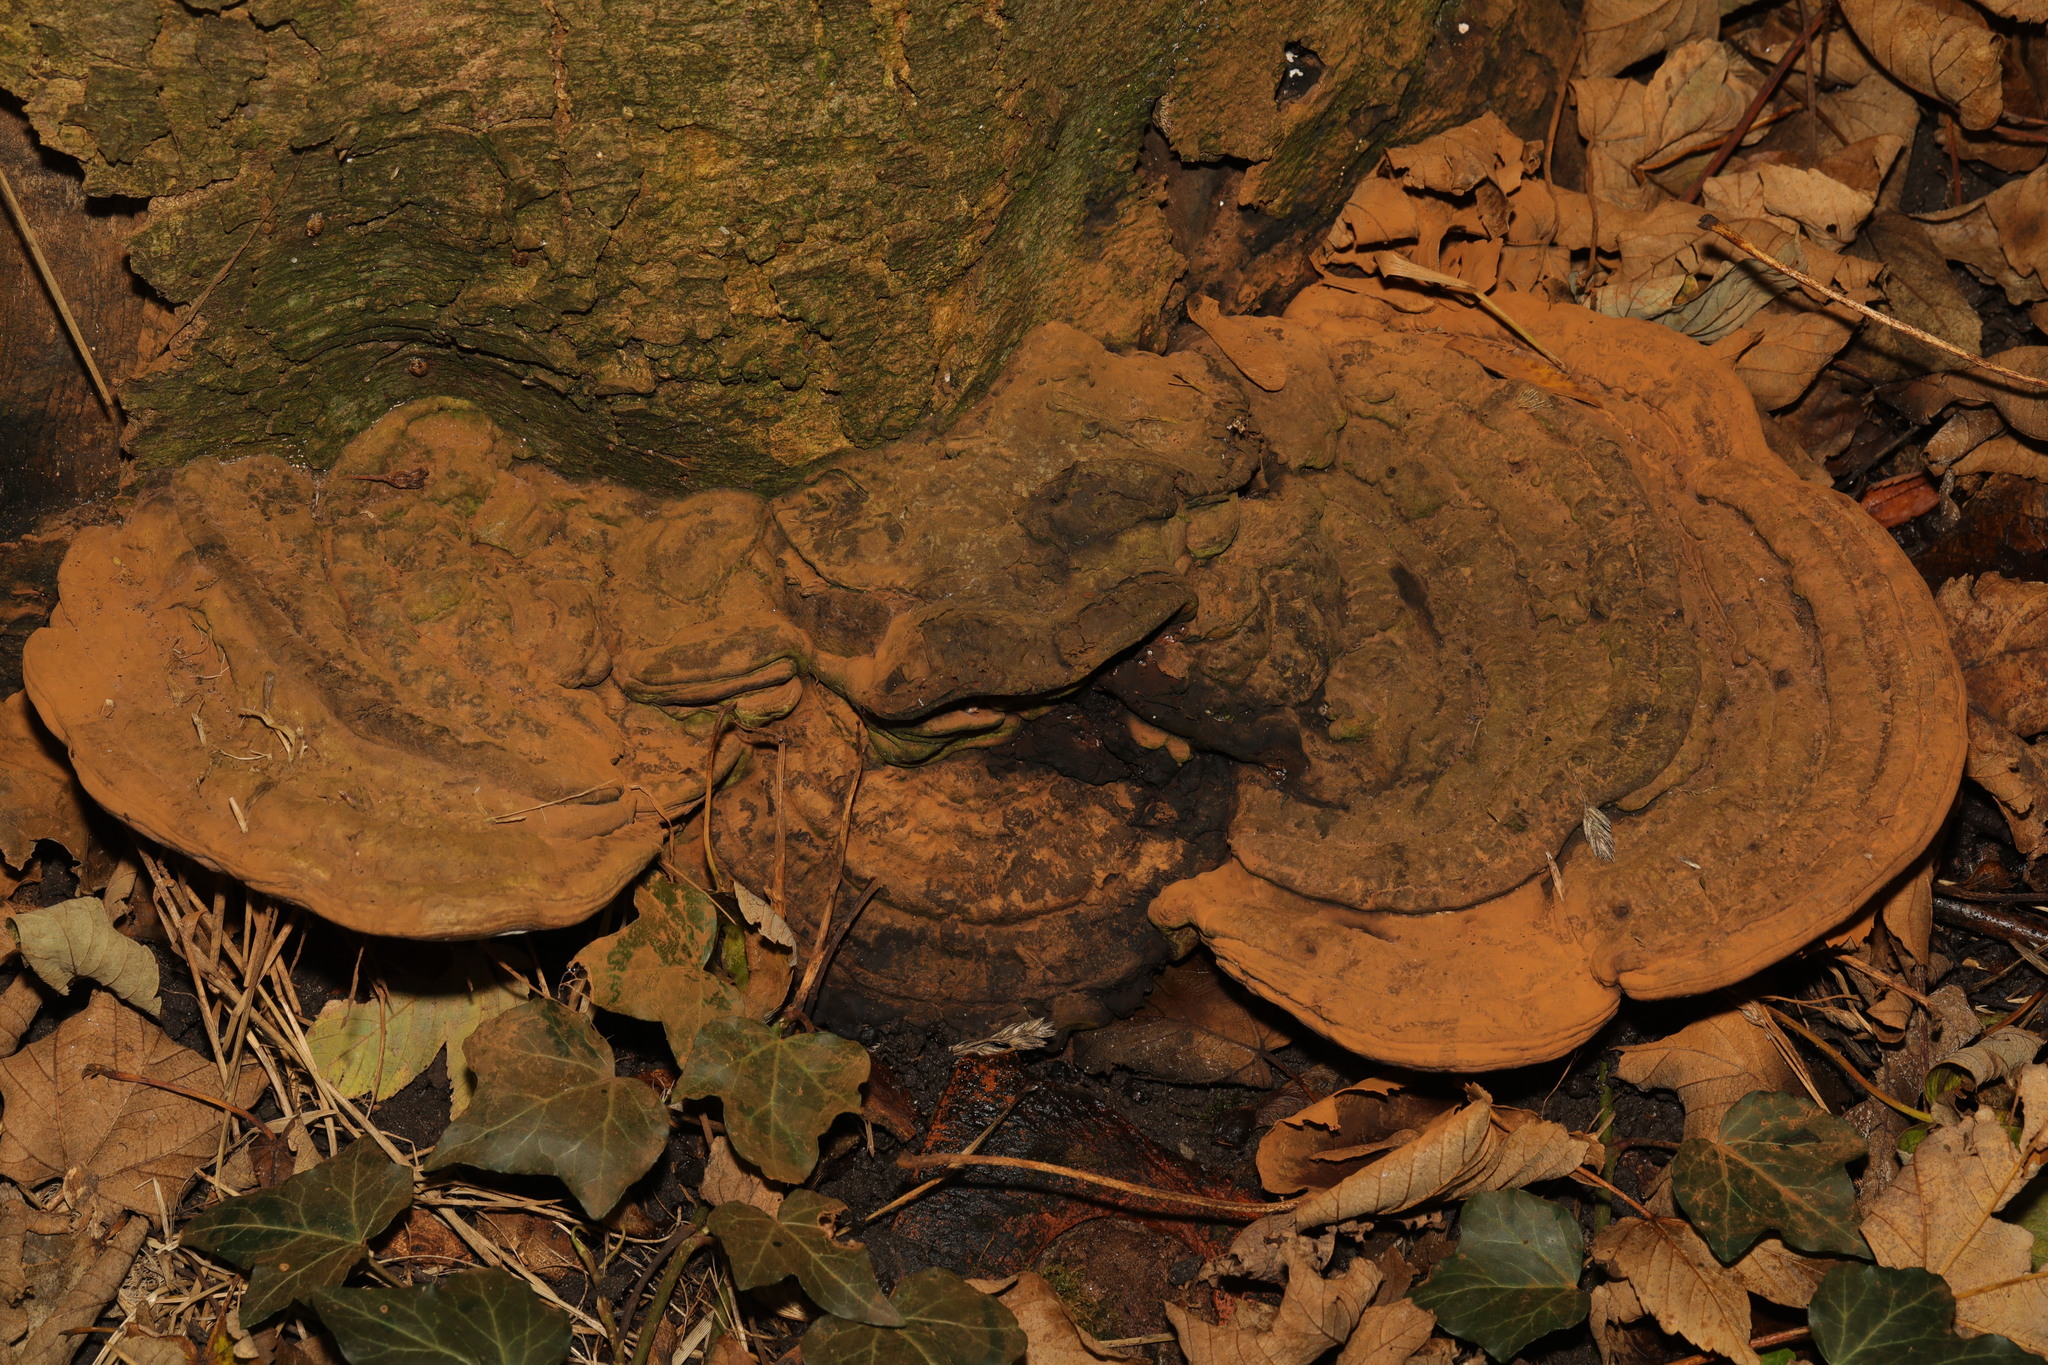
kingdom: Fungi
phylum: Basidiomycota
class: Agaricomycetes
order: Polyporales
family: Polyporaceae
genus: Ganoderma
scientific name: Ganoderma applanatum
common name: Artist's bracket
